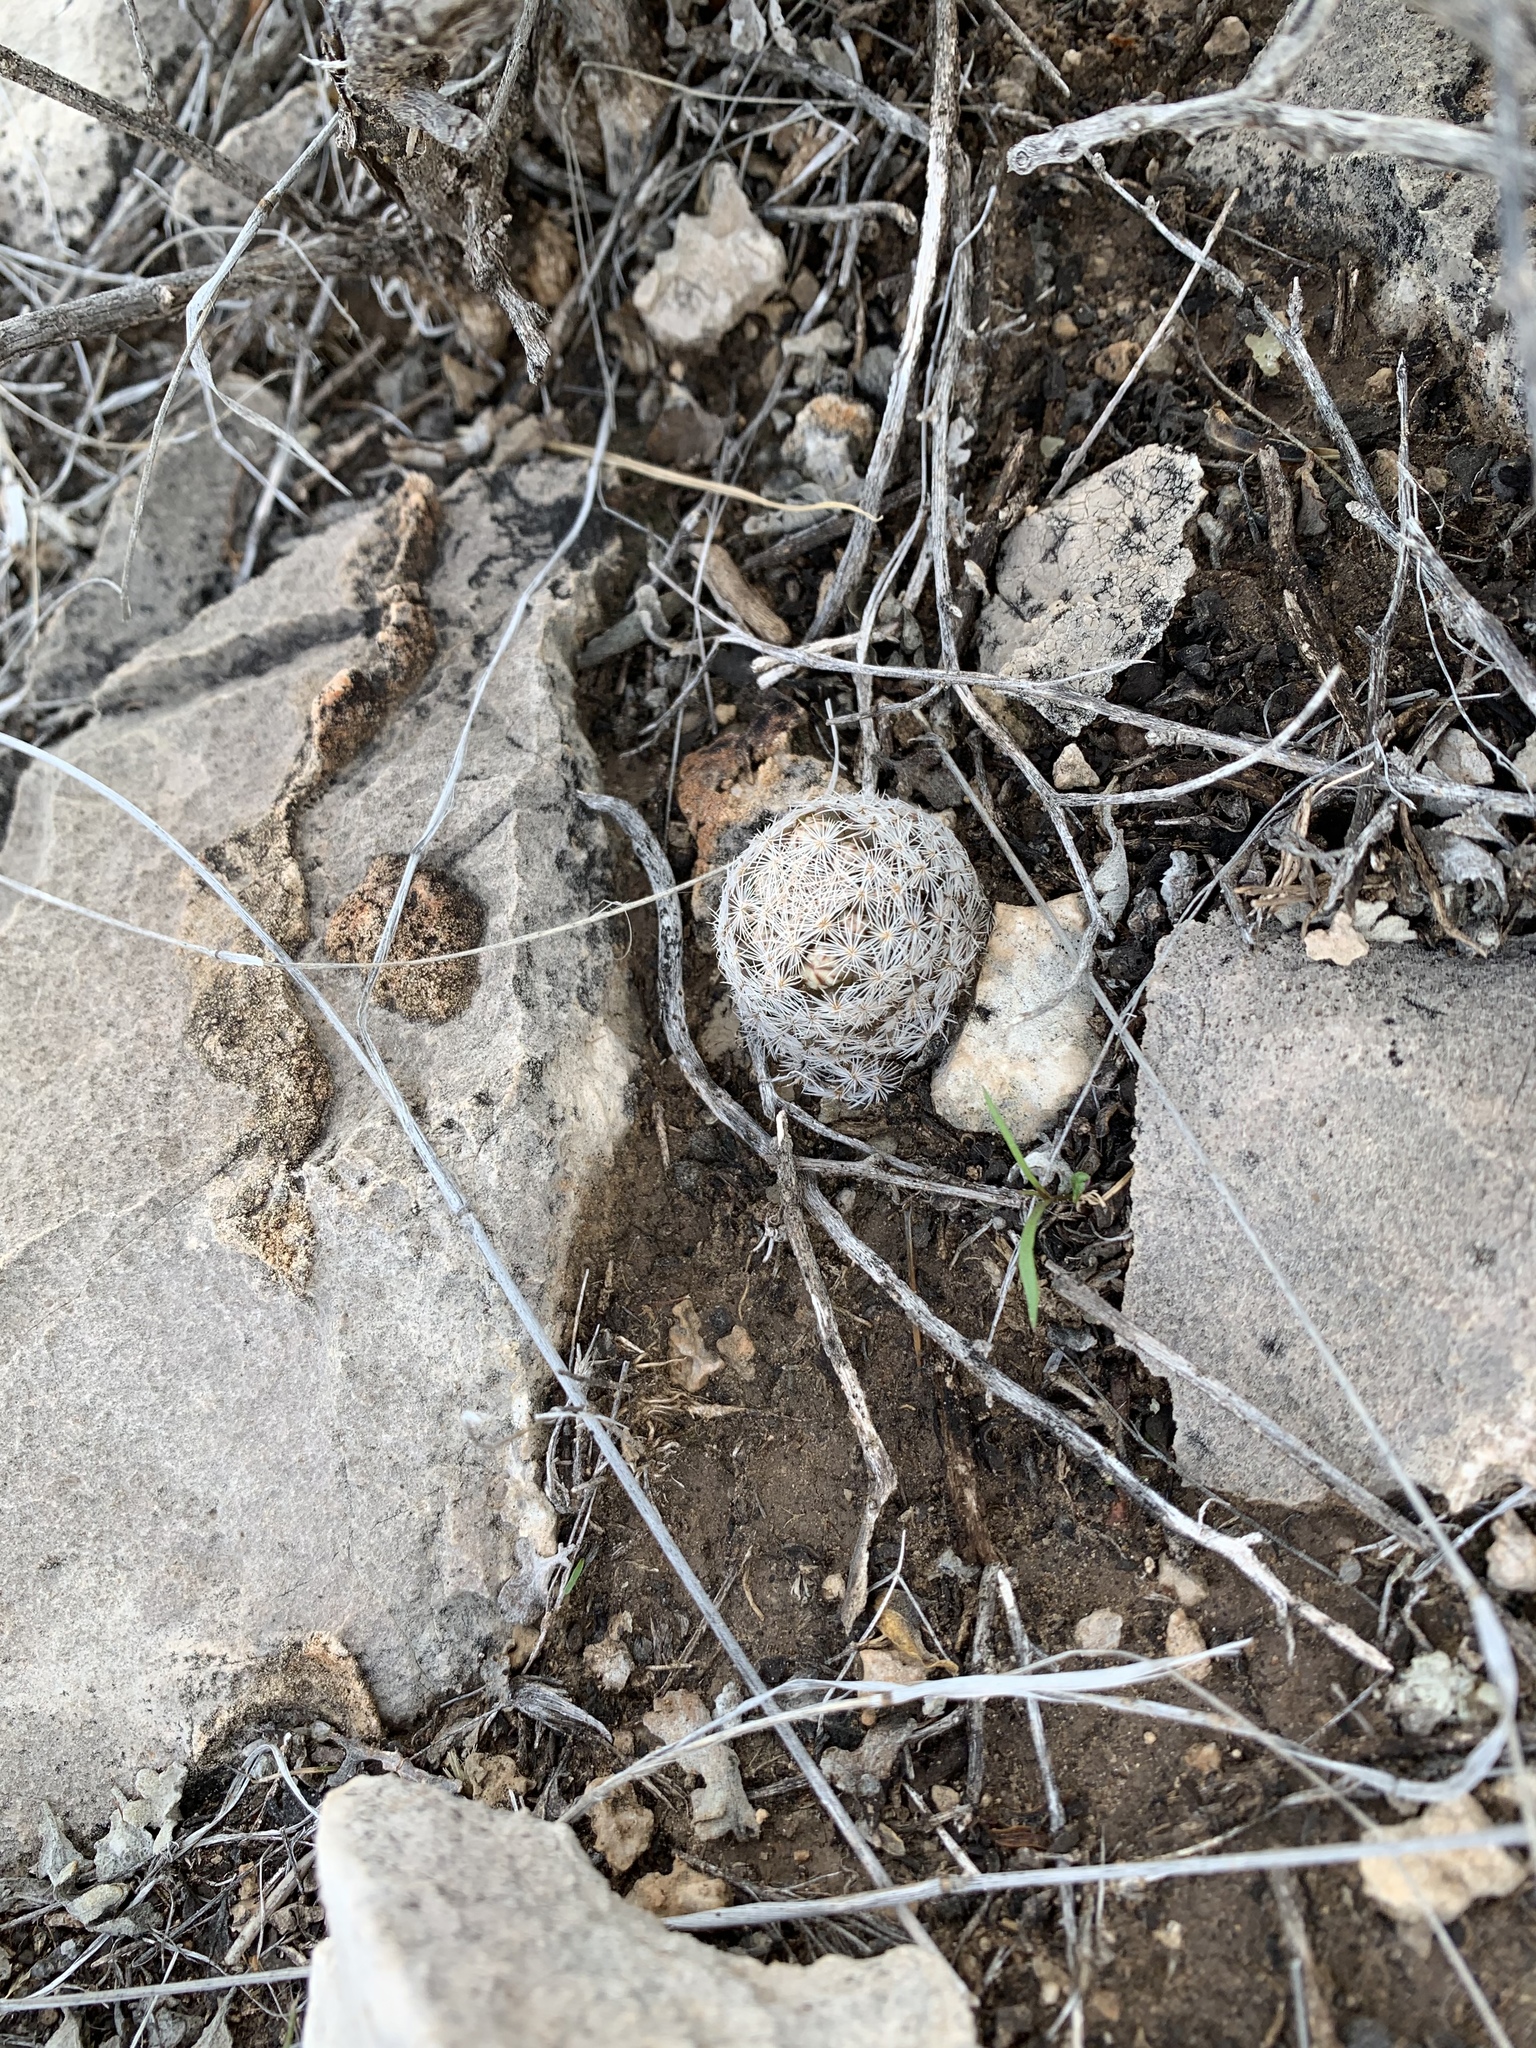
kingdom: Plantae
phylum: Tracheophyta
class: Magnoliopsida
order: Caryophyllales
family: Cactaceae
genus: Mammillaria
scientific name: Mammillaria lasiacantha
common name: Lace-spine nipple cactus
